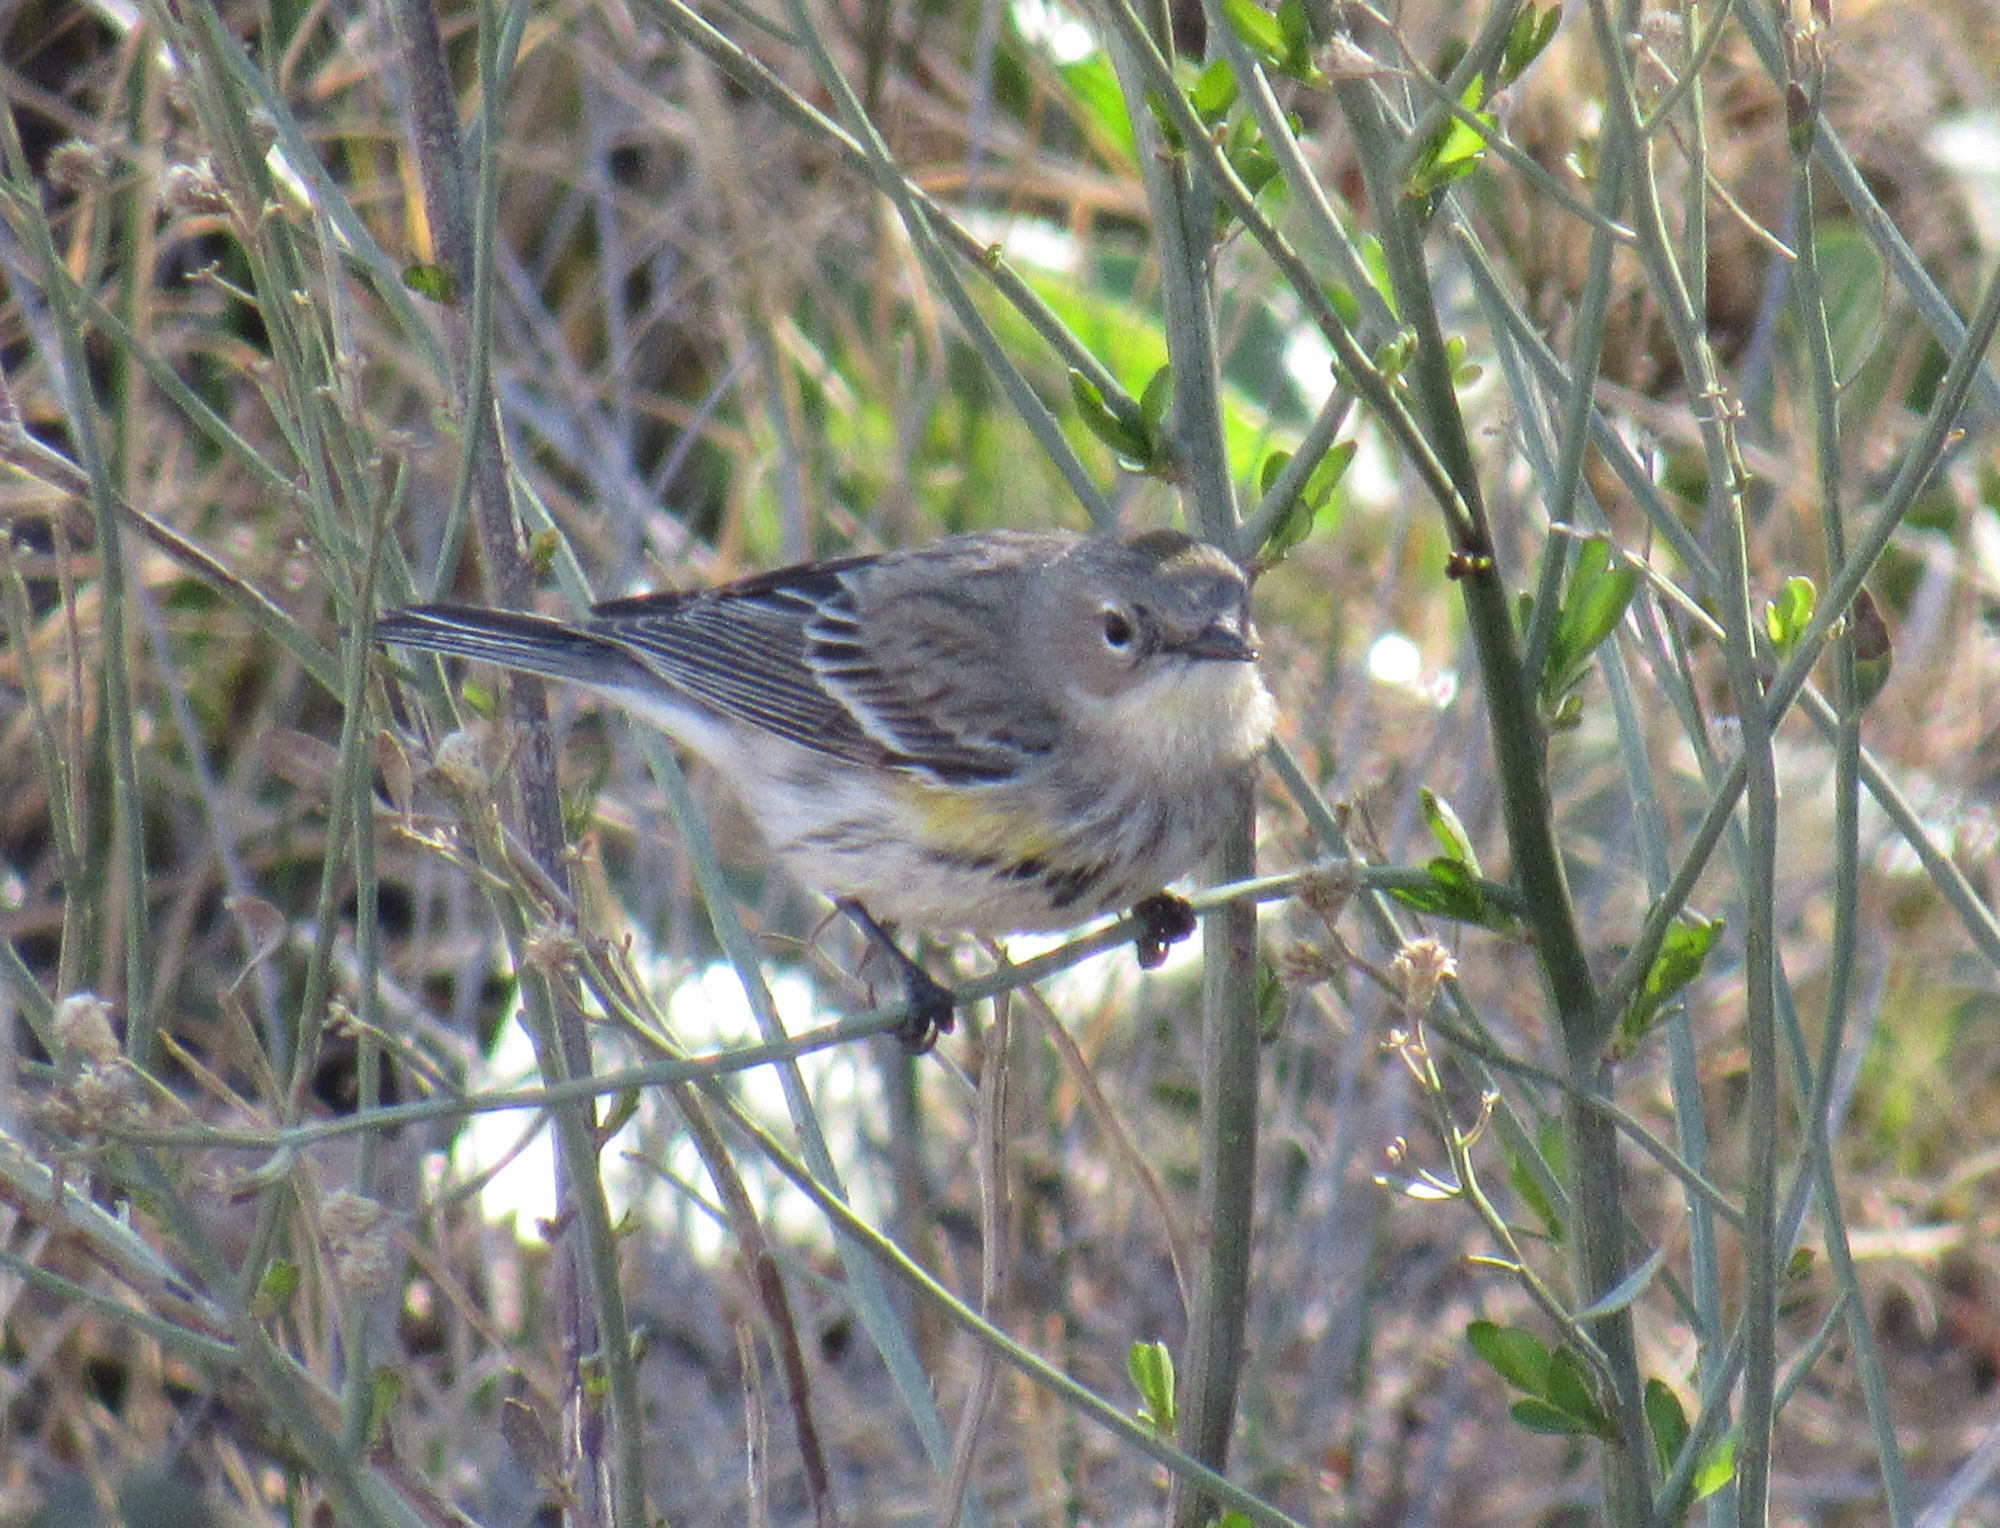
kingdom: Animalia
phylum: Chordata
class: Aves
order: Passeriformes
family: Parulidae
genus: Setophaga
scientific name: Setophaga coronata
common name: Myrtle warbler
